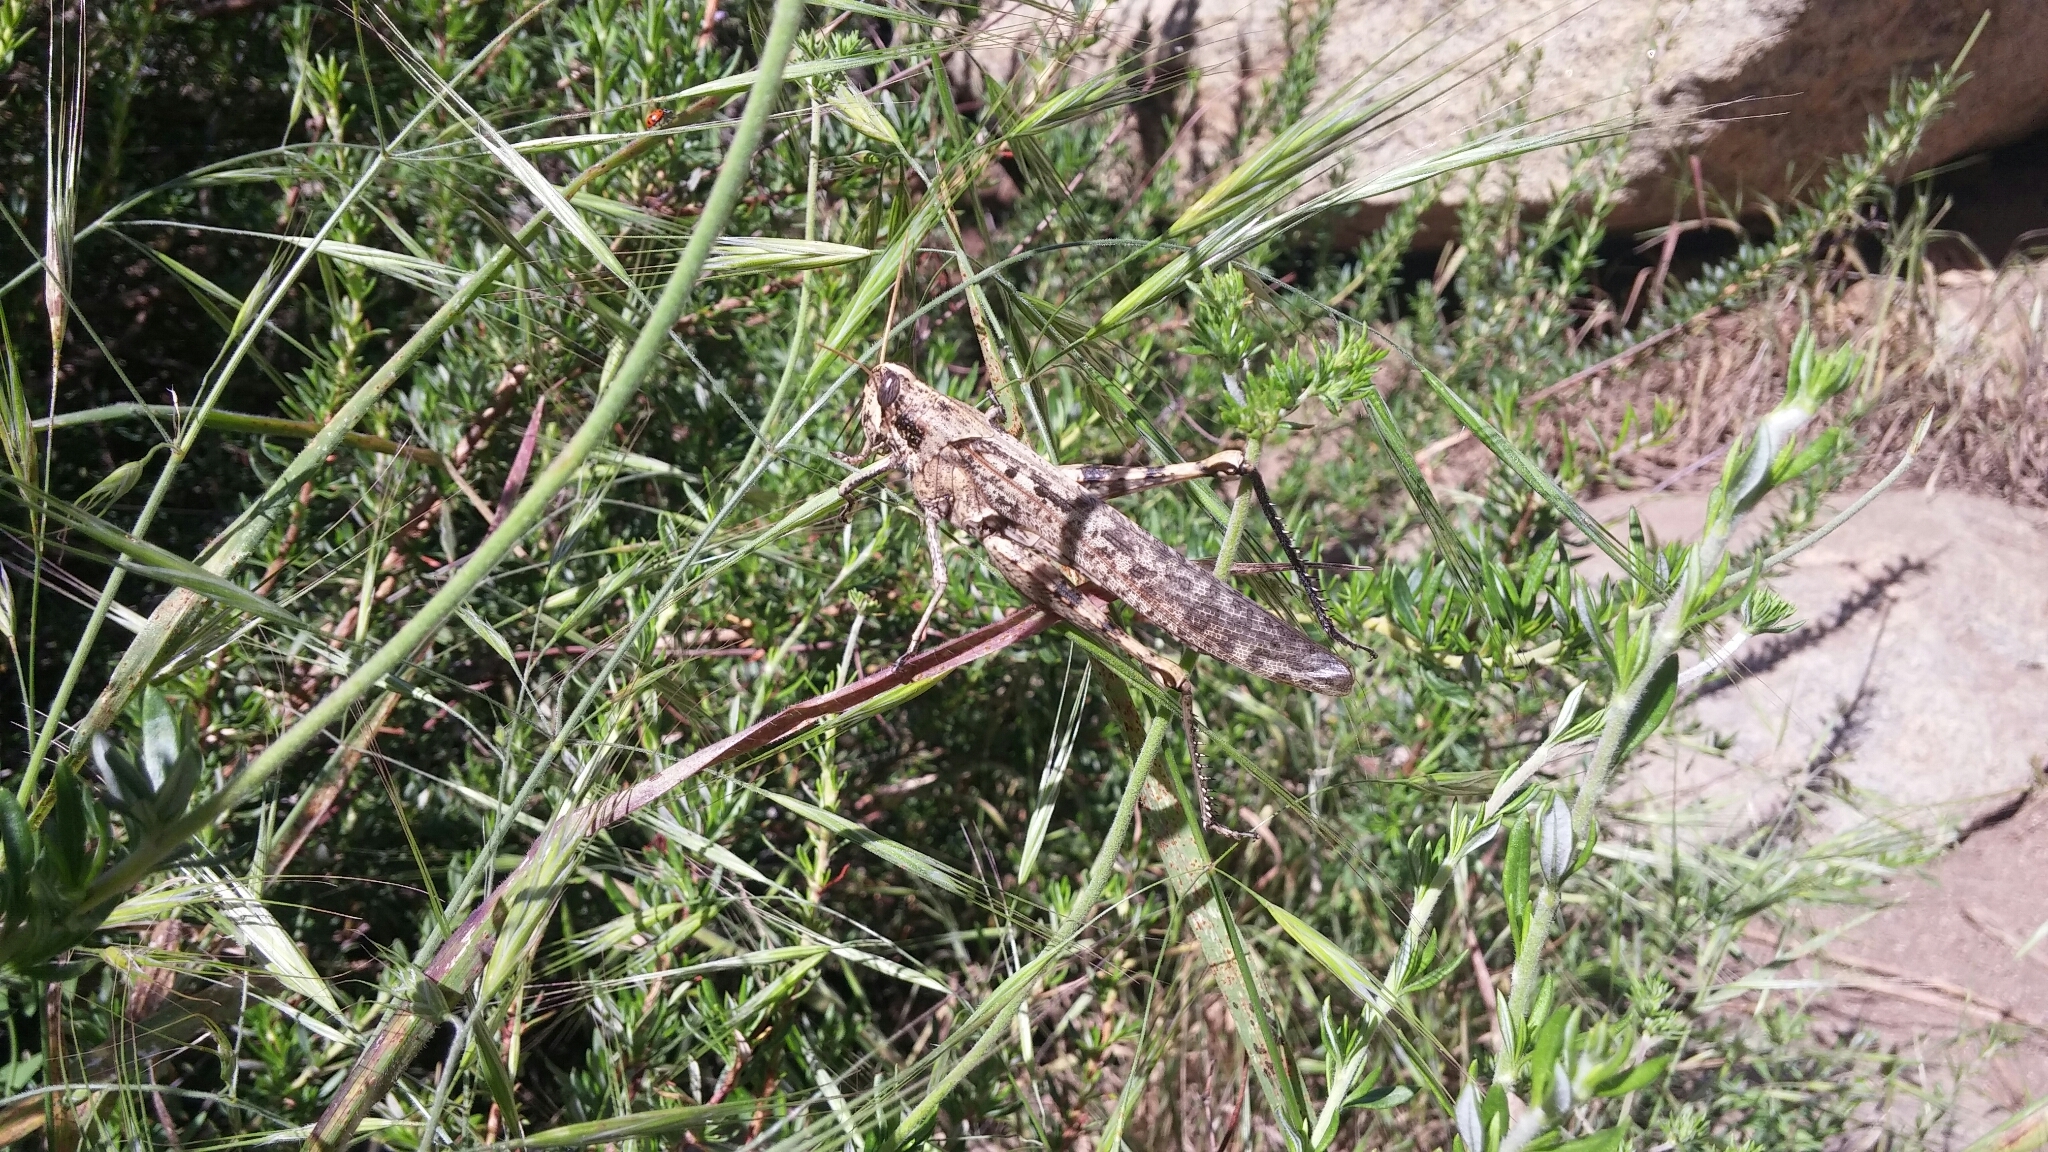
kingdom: Animalia
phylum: Arthropoda
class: Insecta
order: Orthoptera
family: Acrididae
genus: Schistocerca
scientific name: Schistocerca nitens
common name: Vagrant grasshopper
